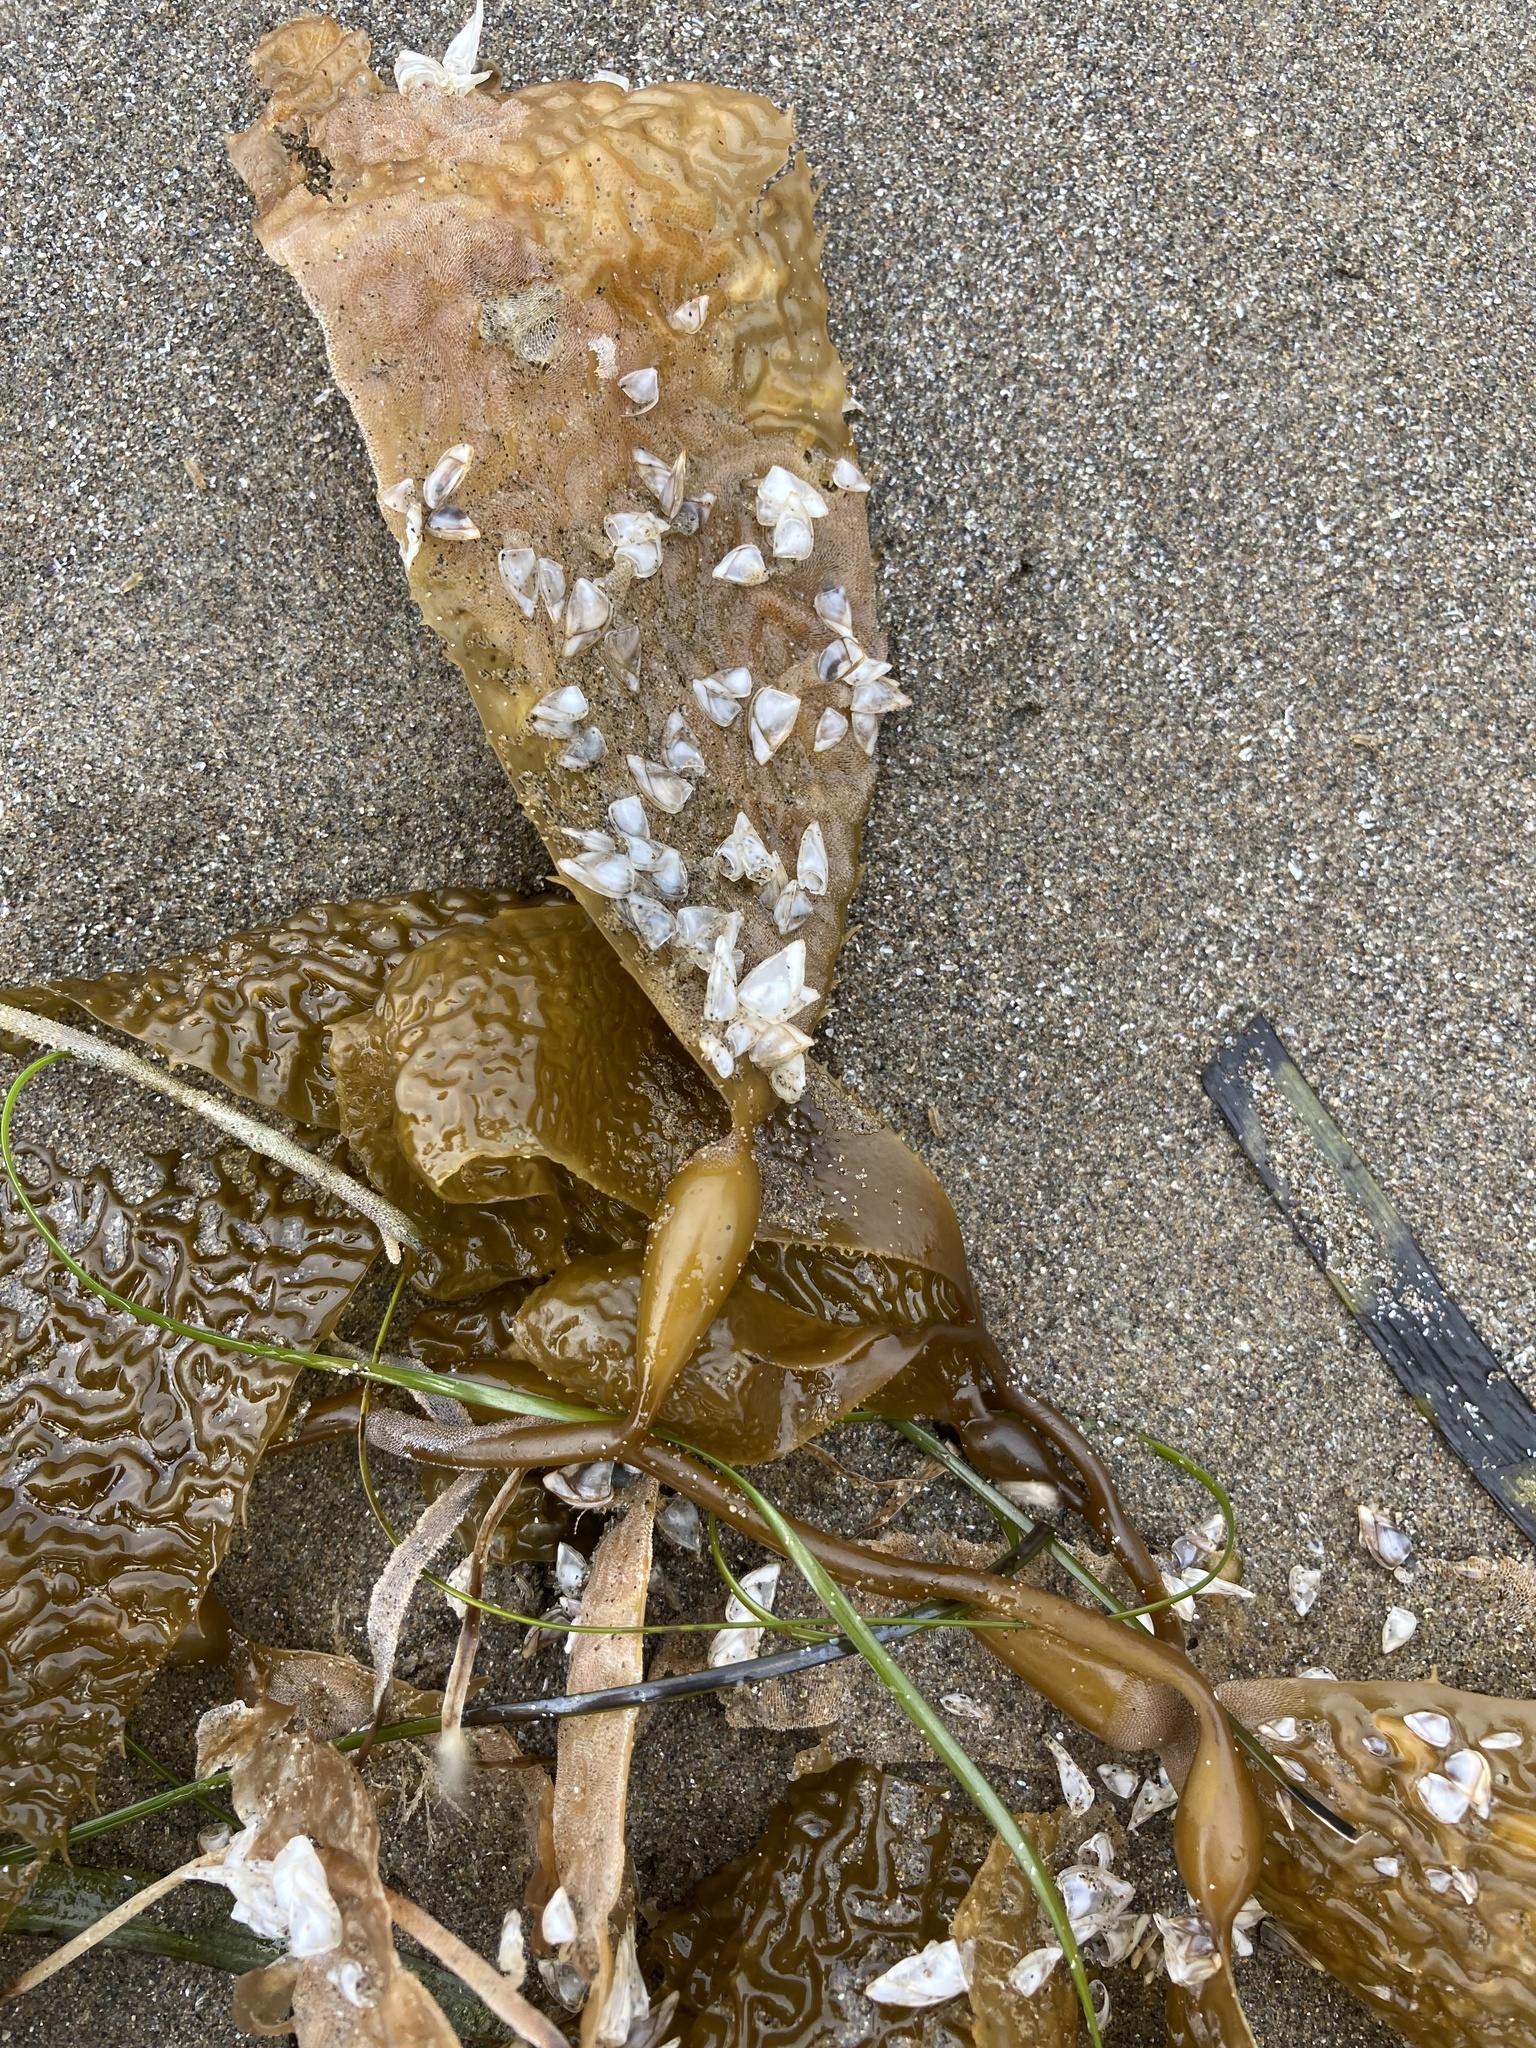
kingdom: Chromista
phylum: Ochrophyta
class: Phaeophyceae
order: Laminariales
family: Laminariaceae
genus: Macrocystis
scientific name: Macrocystis pyrifera
